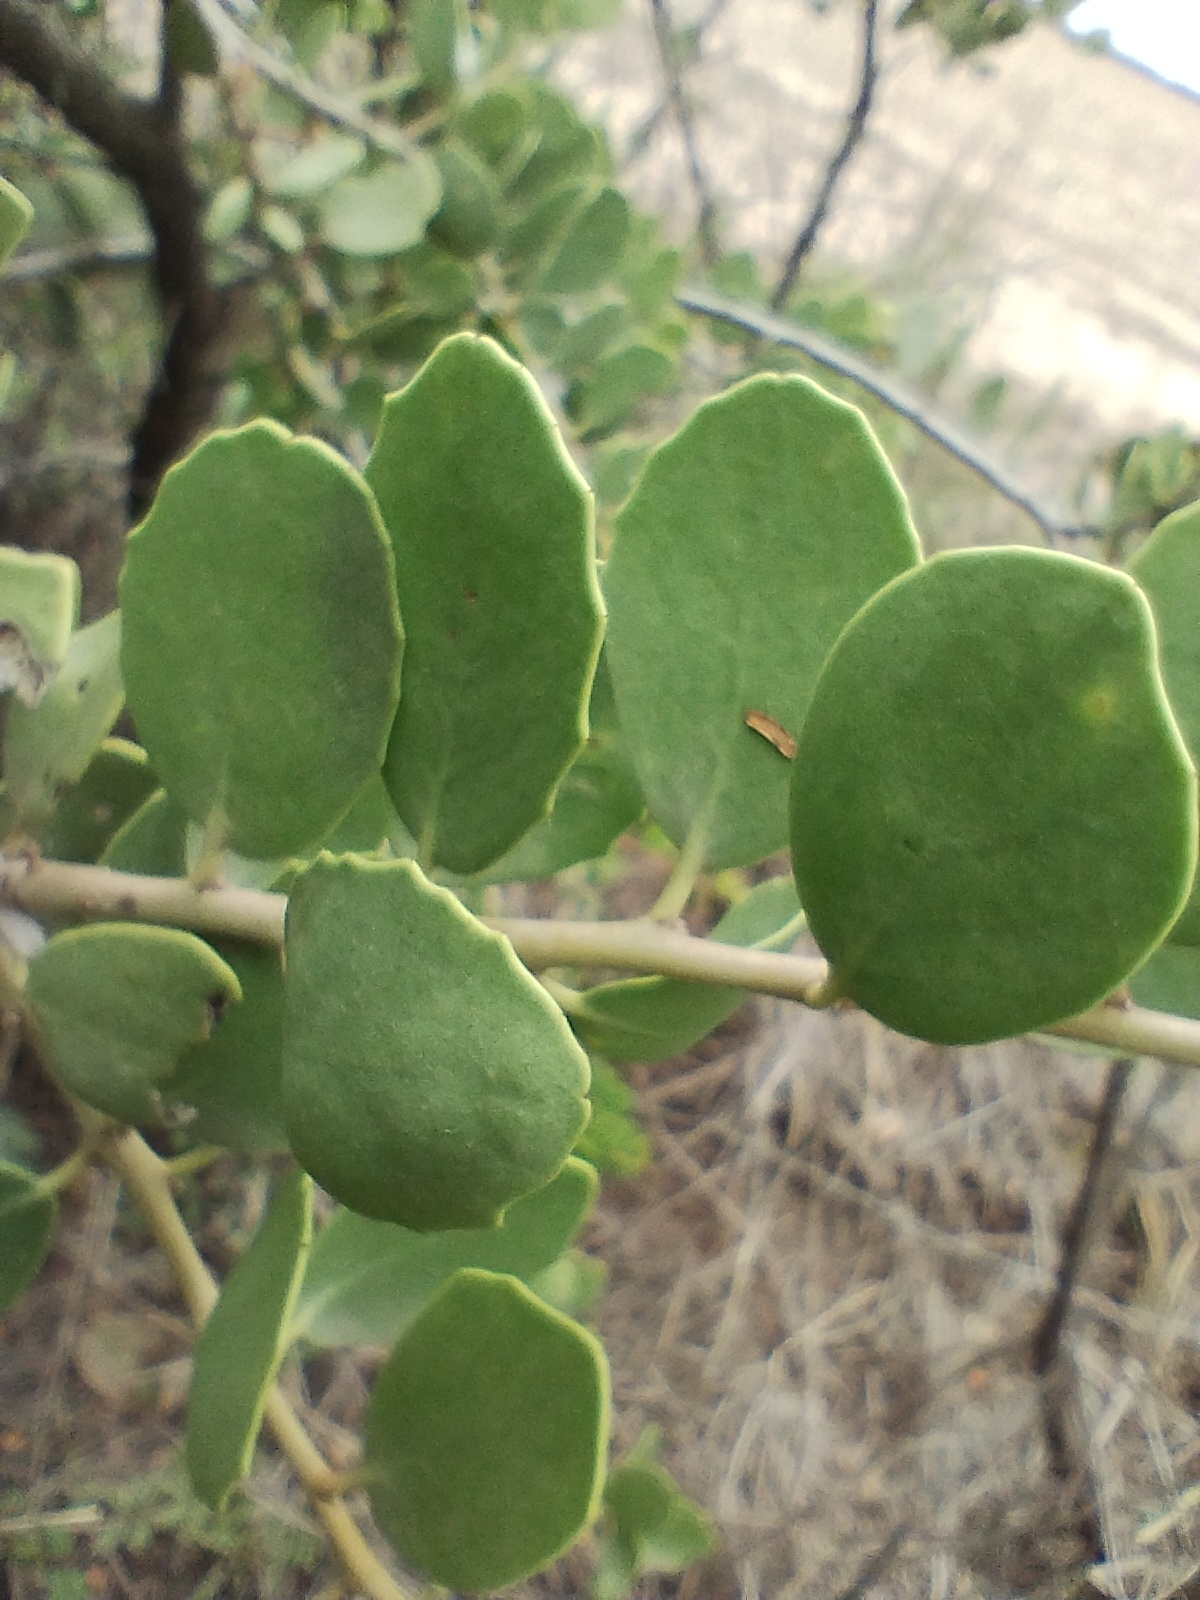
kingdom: Plantae
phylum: Tracheophyta
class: Magnoliopsida
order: Celastrales
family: Celastraceae
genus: Tricerma
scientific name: Tricerma vitis-idaeum
